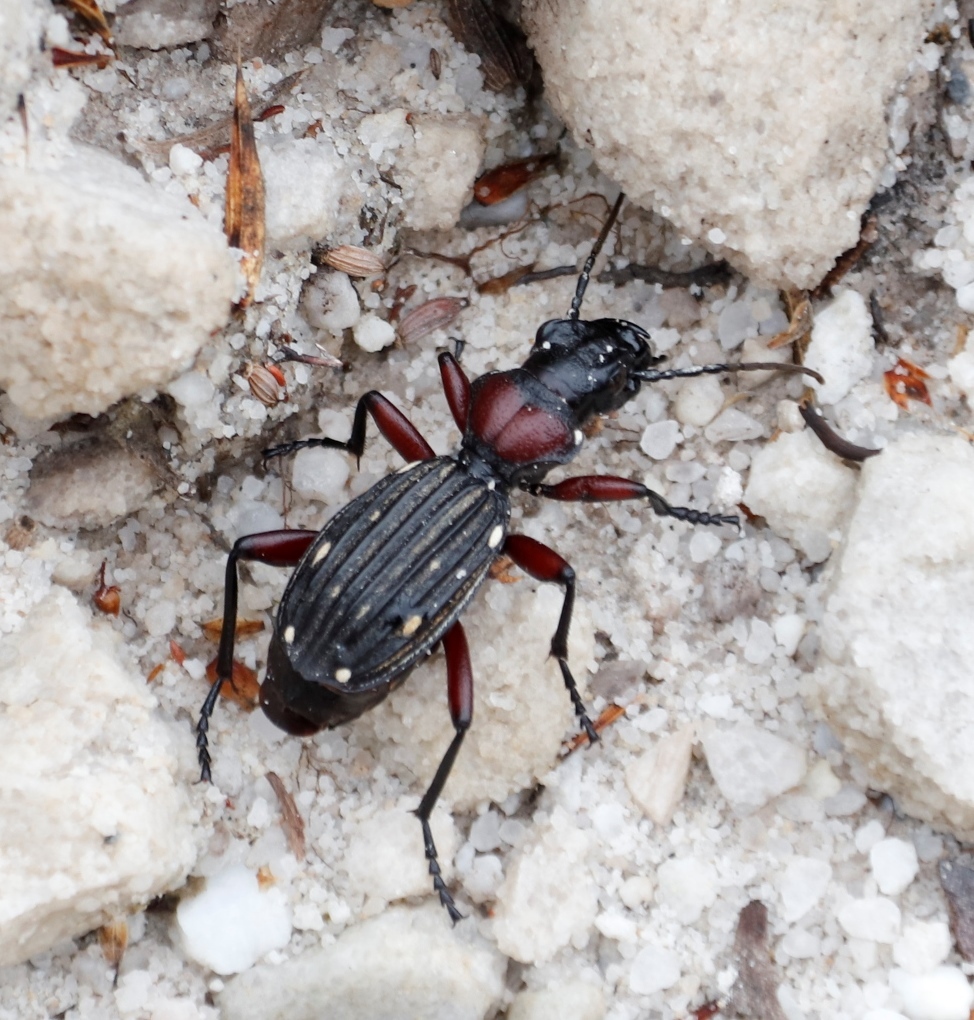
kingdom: Animalia
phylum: Arthropoda
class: Insecta
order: Coleoptera
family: Carabidae
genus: Anthia
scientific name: Anthia decemguttata
